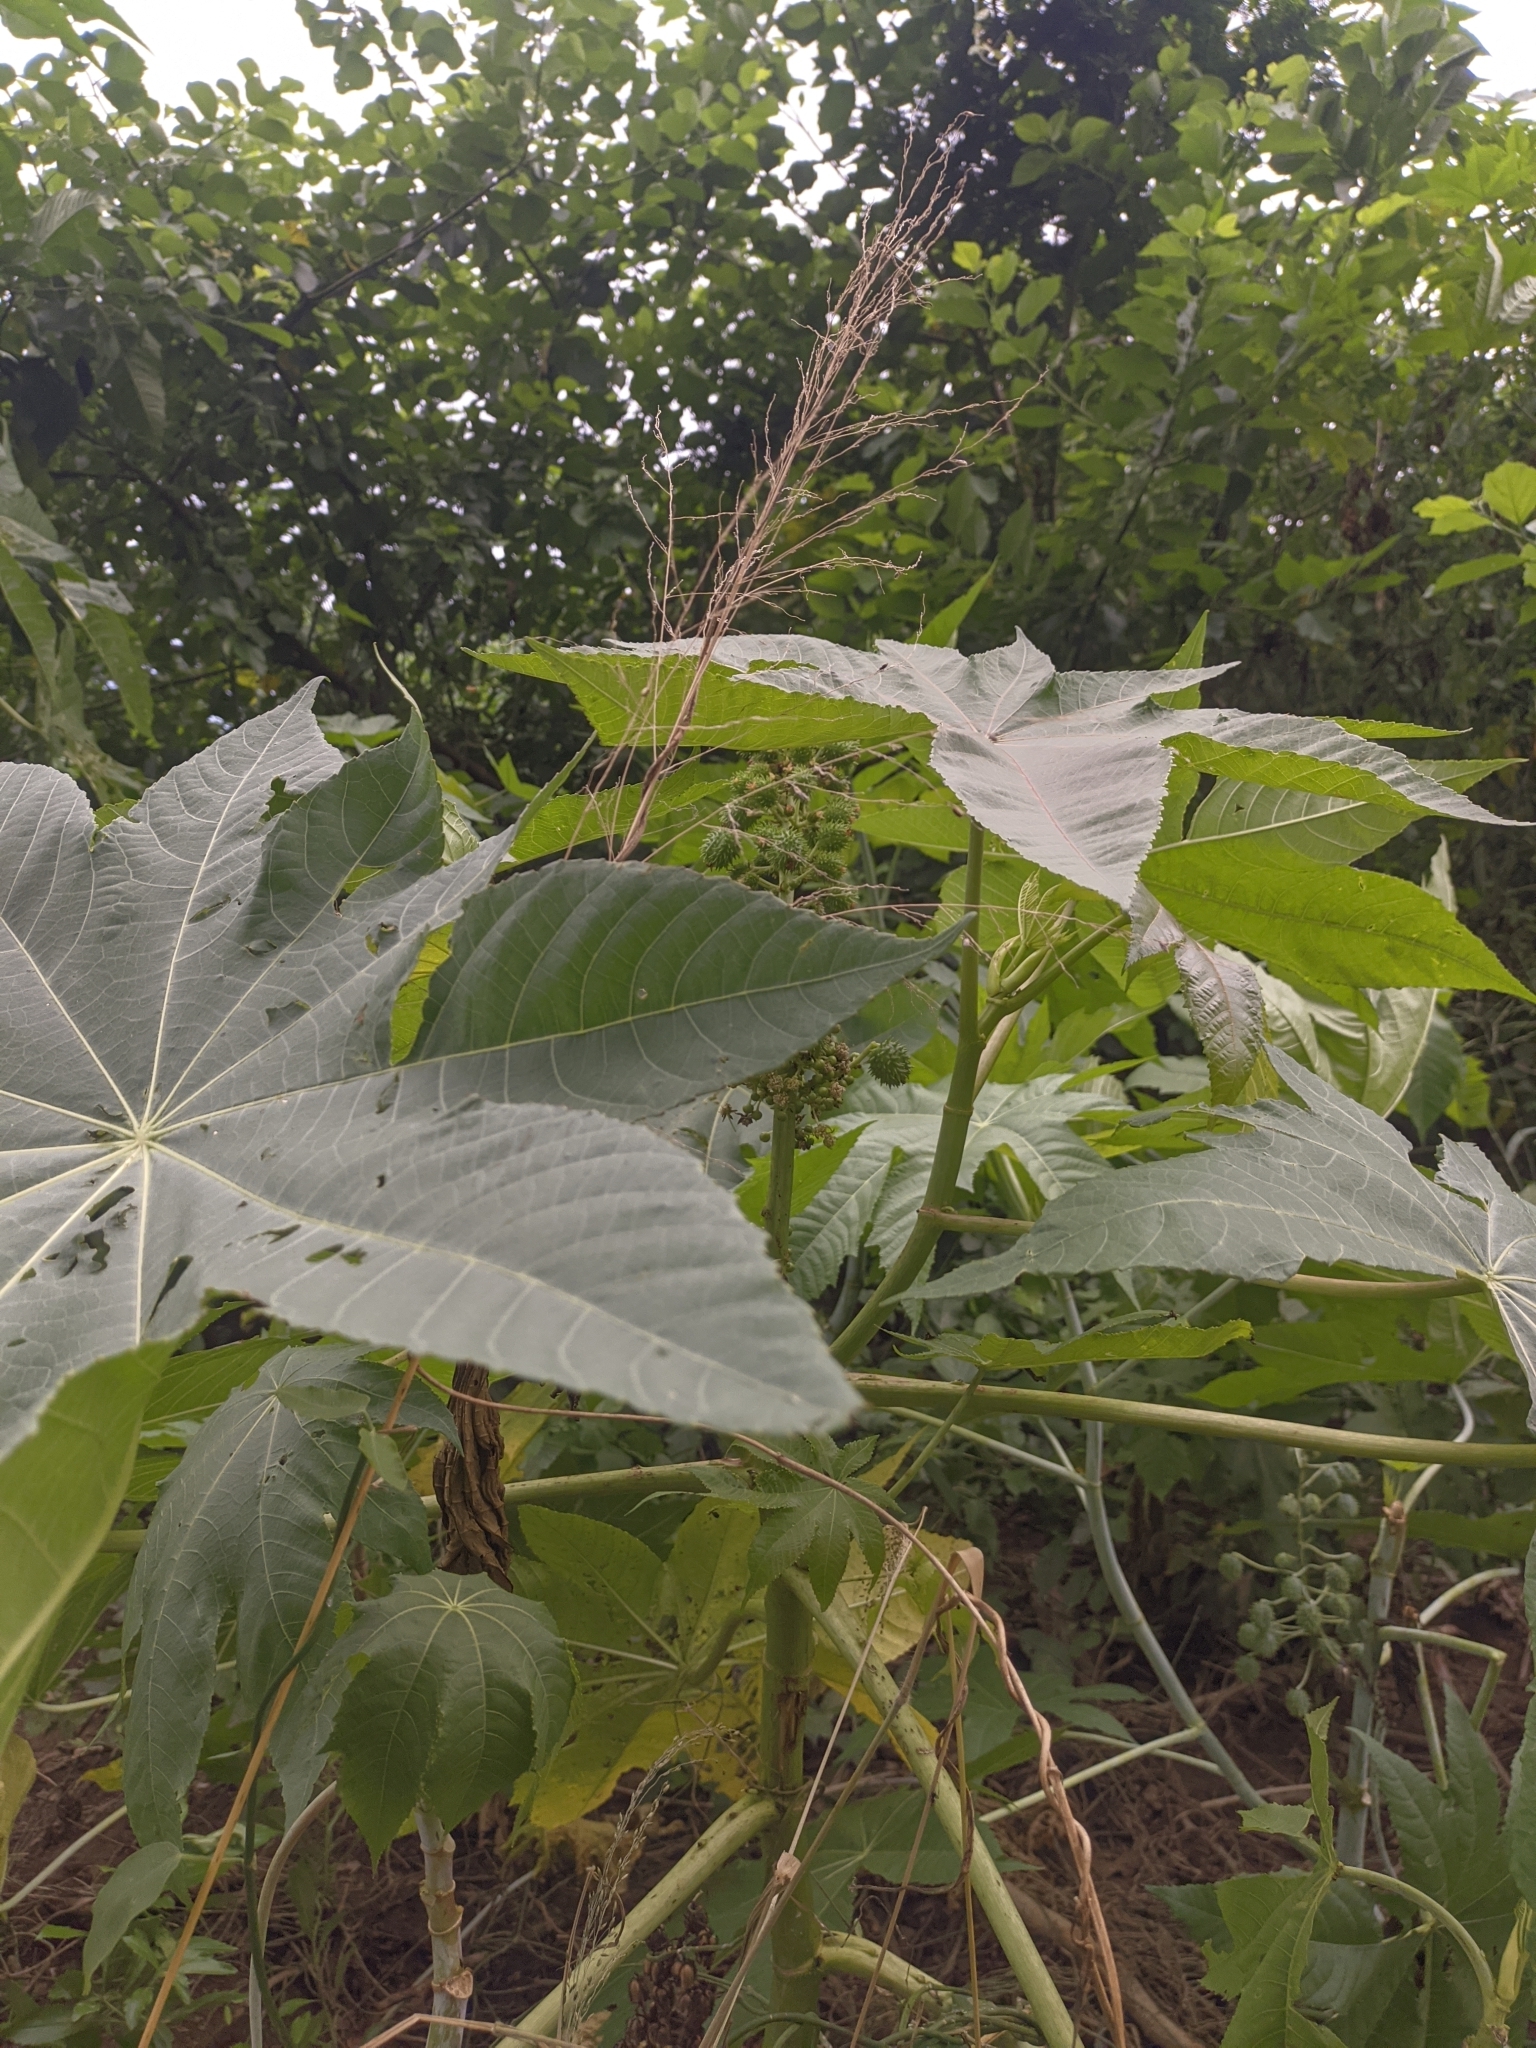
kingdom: Plantae
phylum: Tracheophyta
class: Magnoliopsida
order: Malpighiales
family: Euphorbiaceae
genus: Ricinus
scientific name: Ricinus communis
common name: Castor-oil-plant
